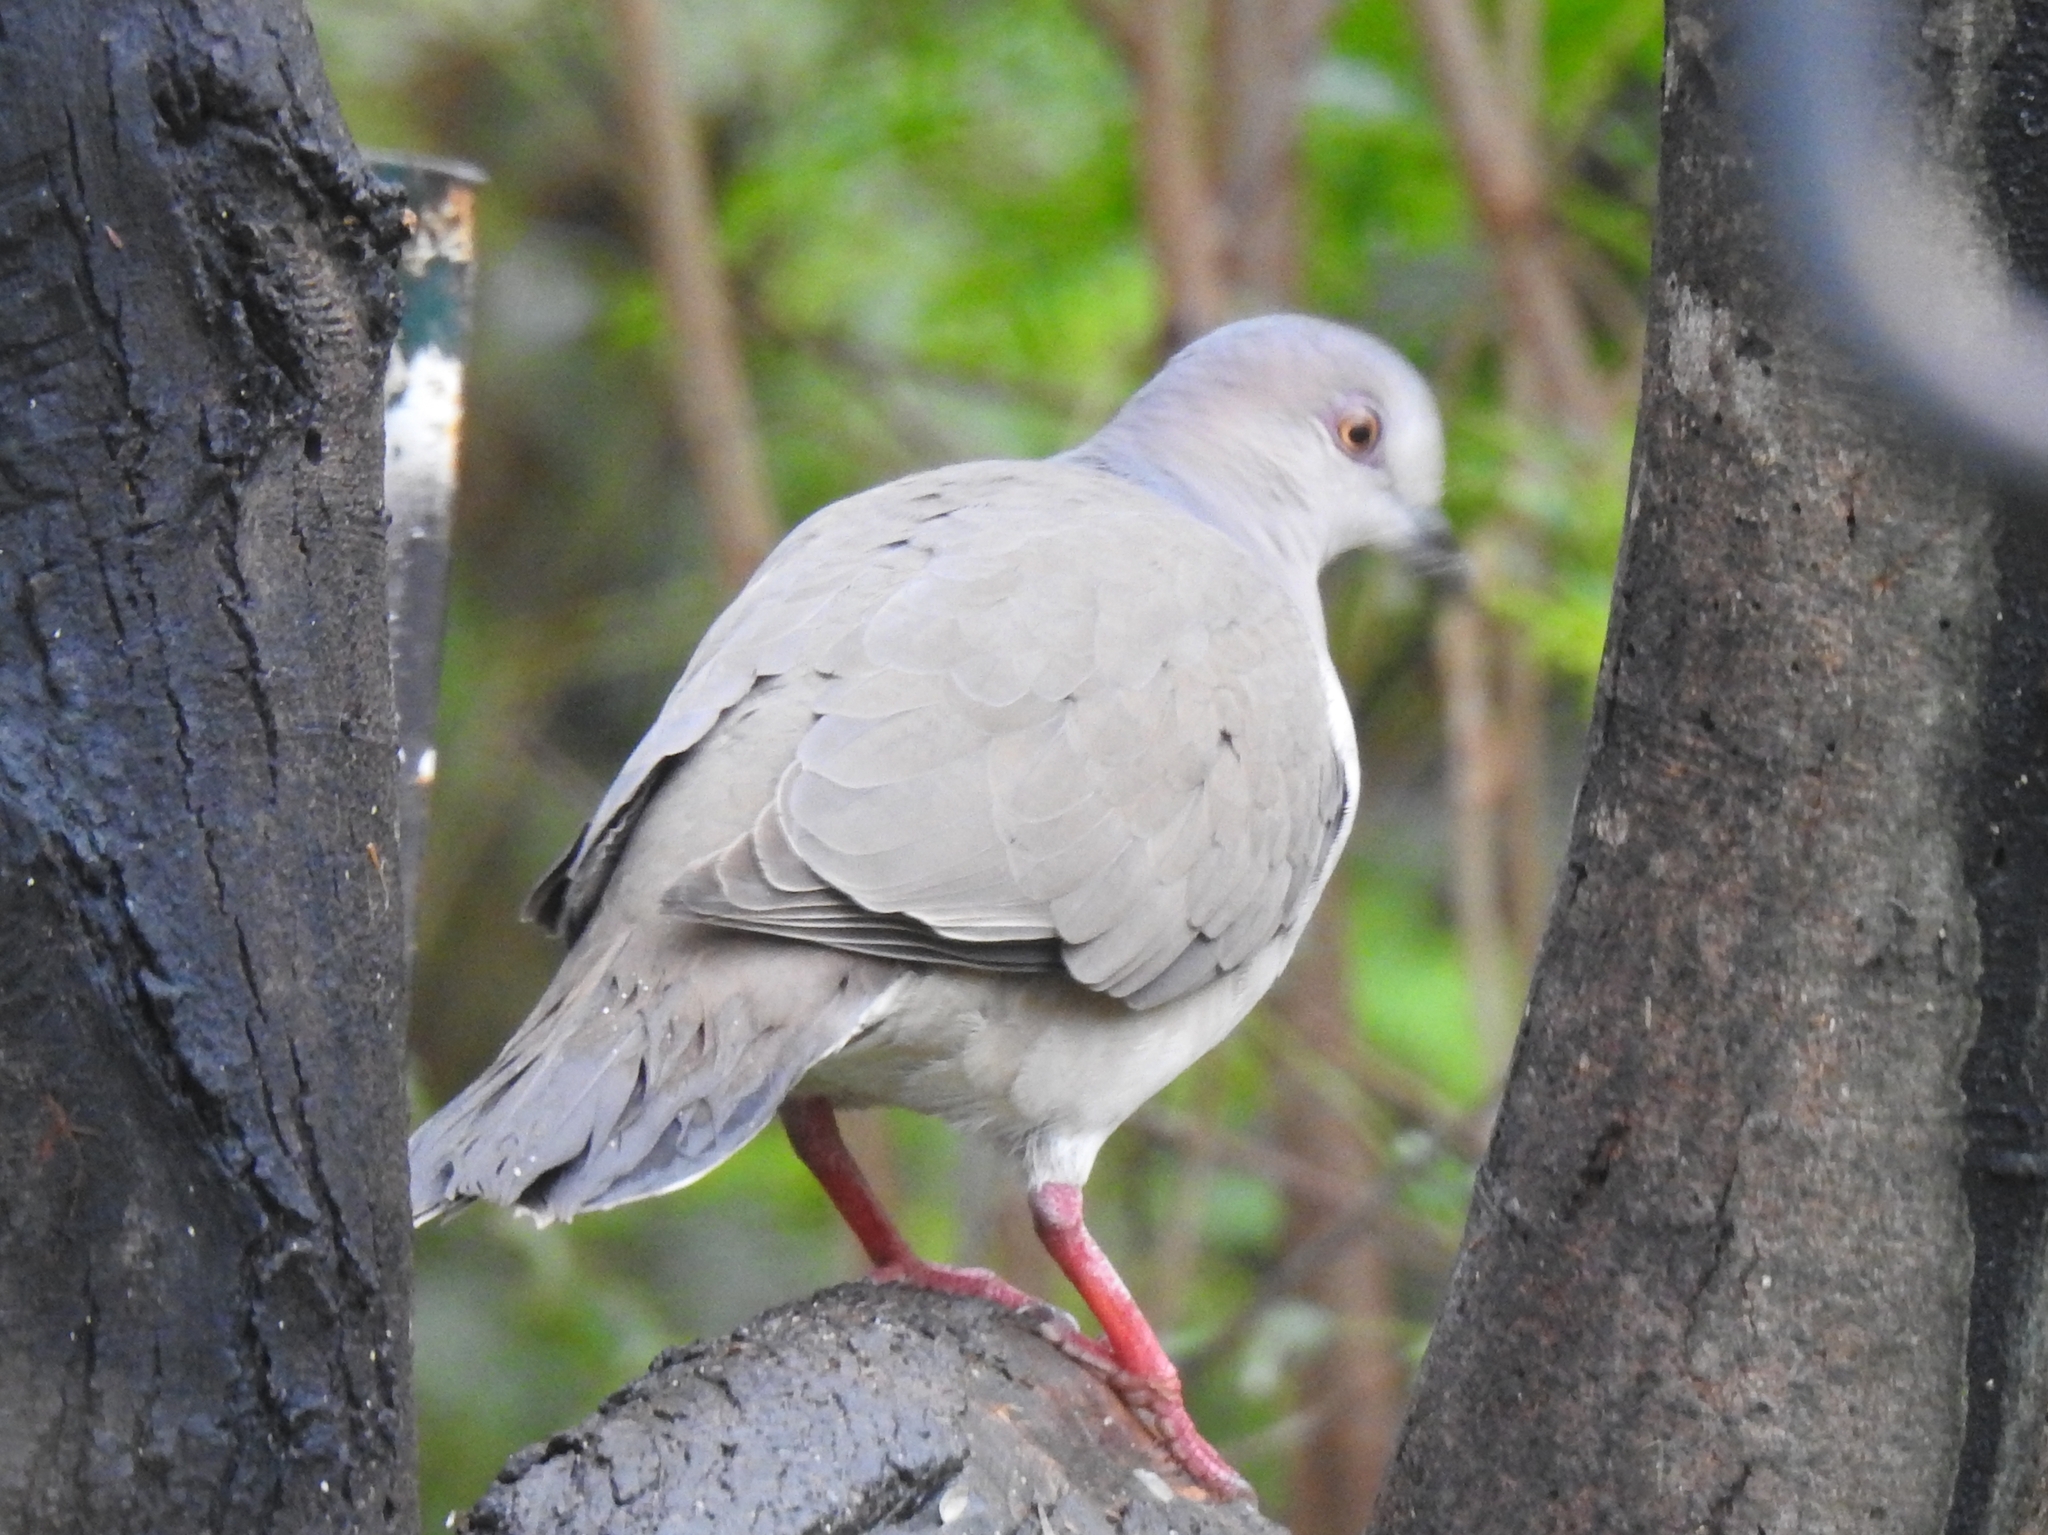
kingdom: Animalia
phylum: Chordata
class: Aves
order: Columbiformes
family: Columbidae
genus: Leptotila
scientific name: Leptotila verreauxi
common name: White-tipped dove
